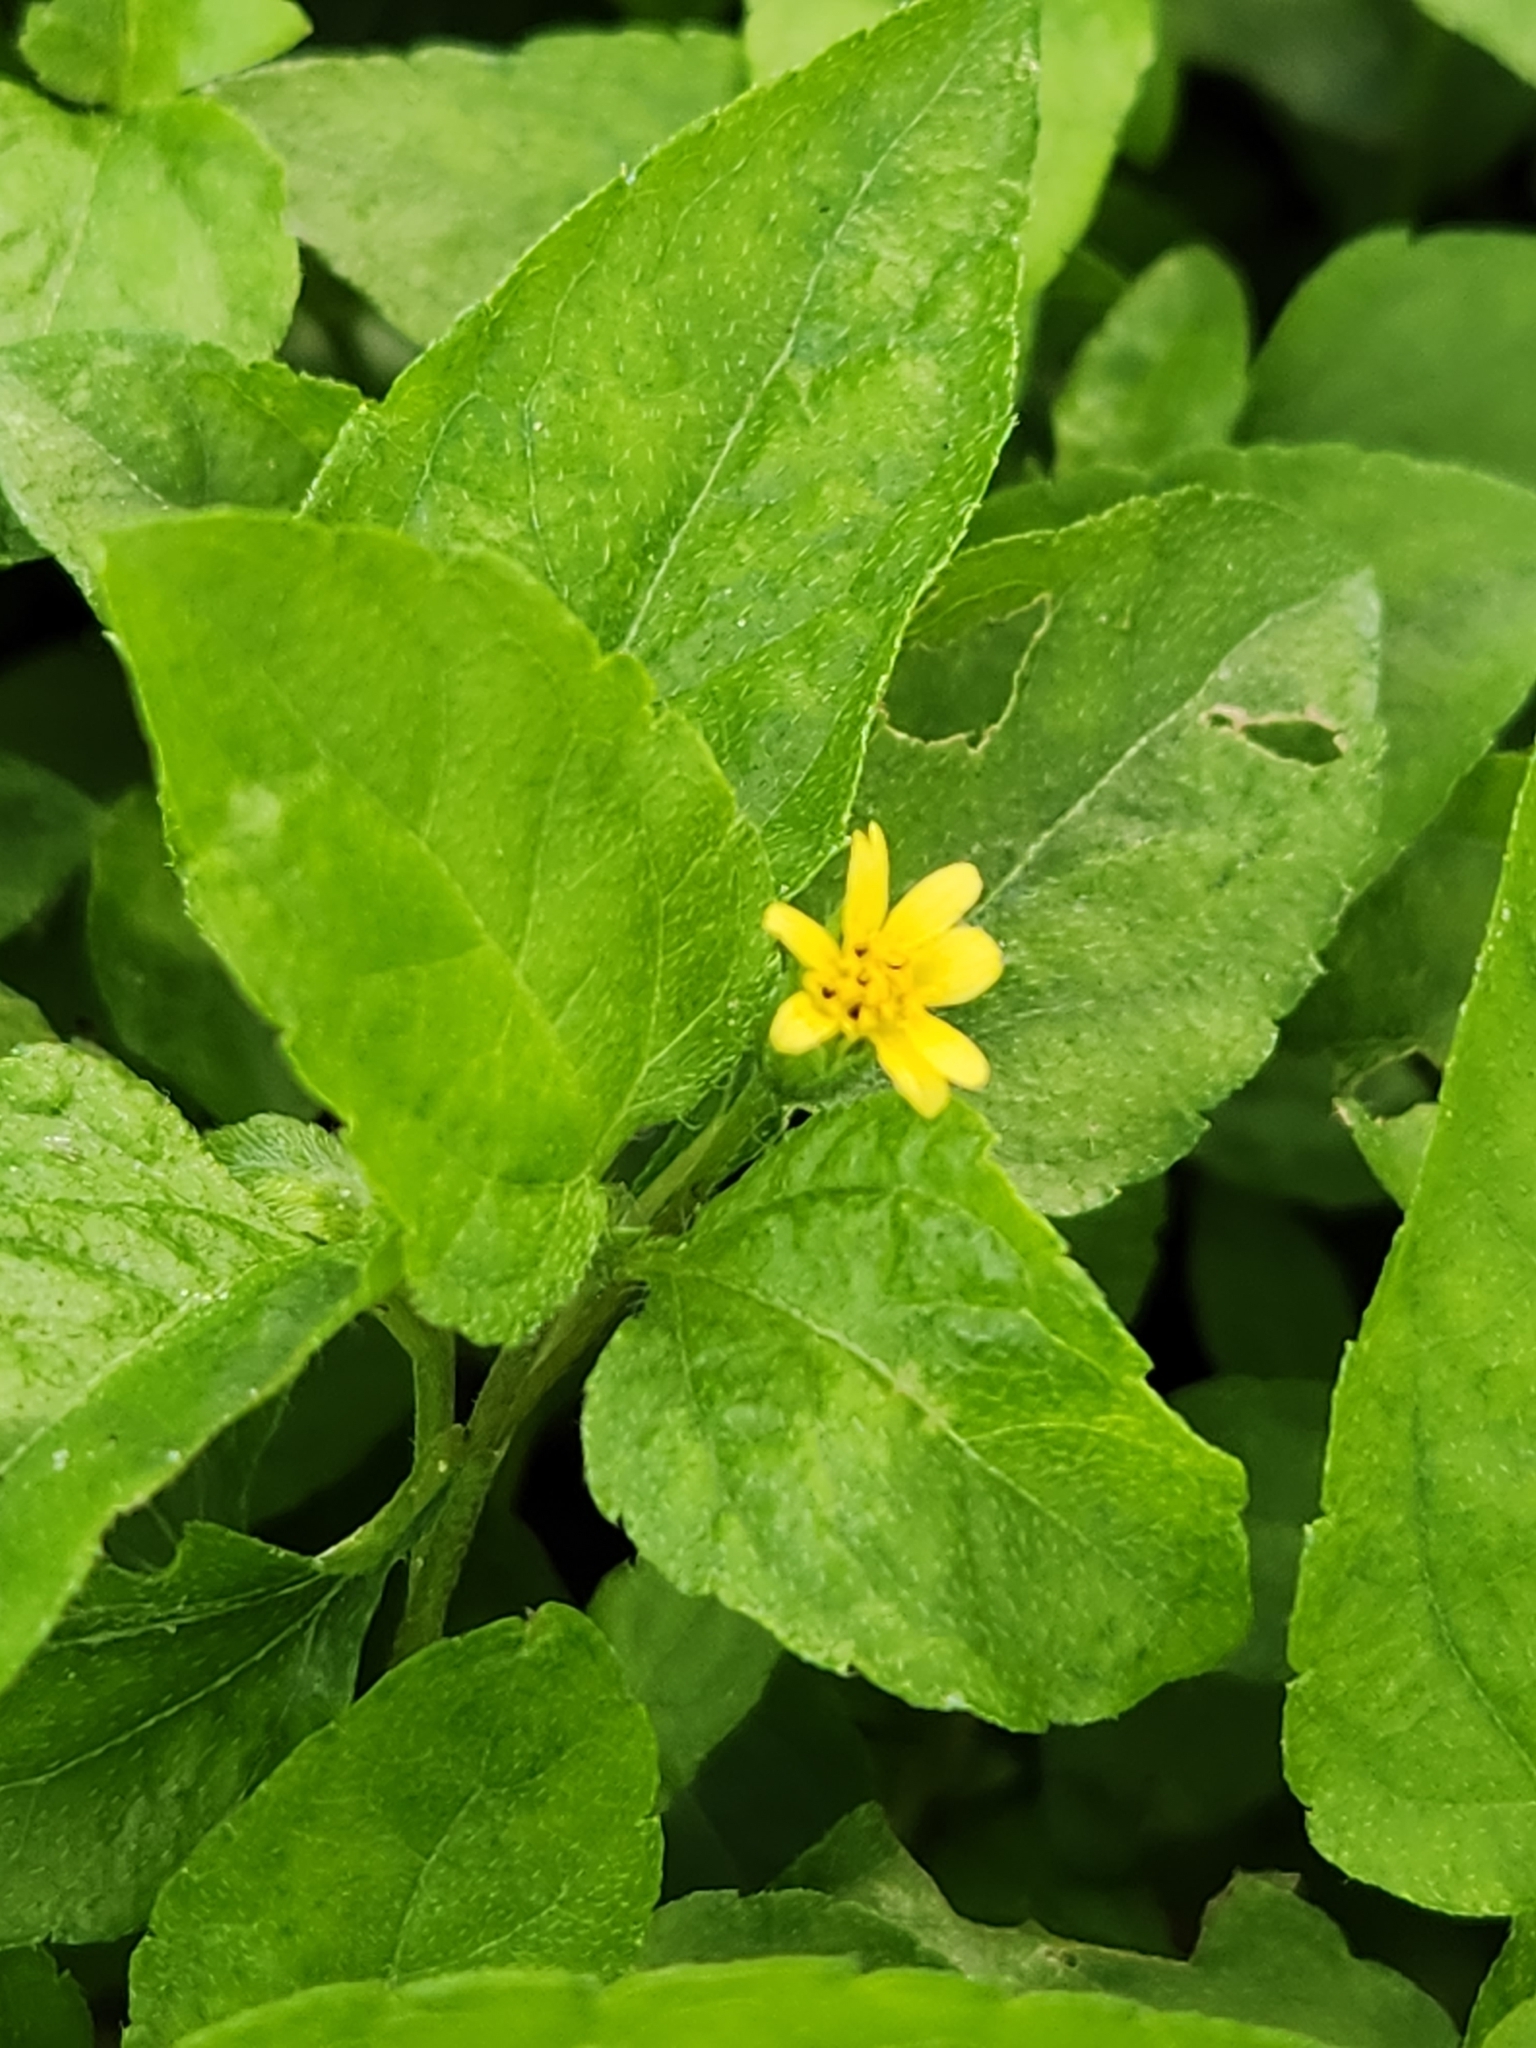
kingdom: Plantae
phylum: Tracheophyta
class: Magnoliopsida
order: Asterales
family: Asteraceae
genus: Calyptocarpus
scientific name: Calyptocarpus vialis
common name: Straggler daisy
